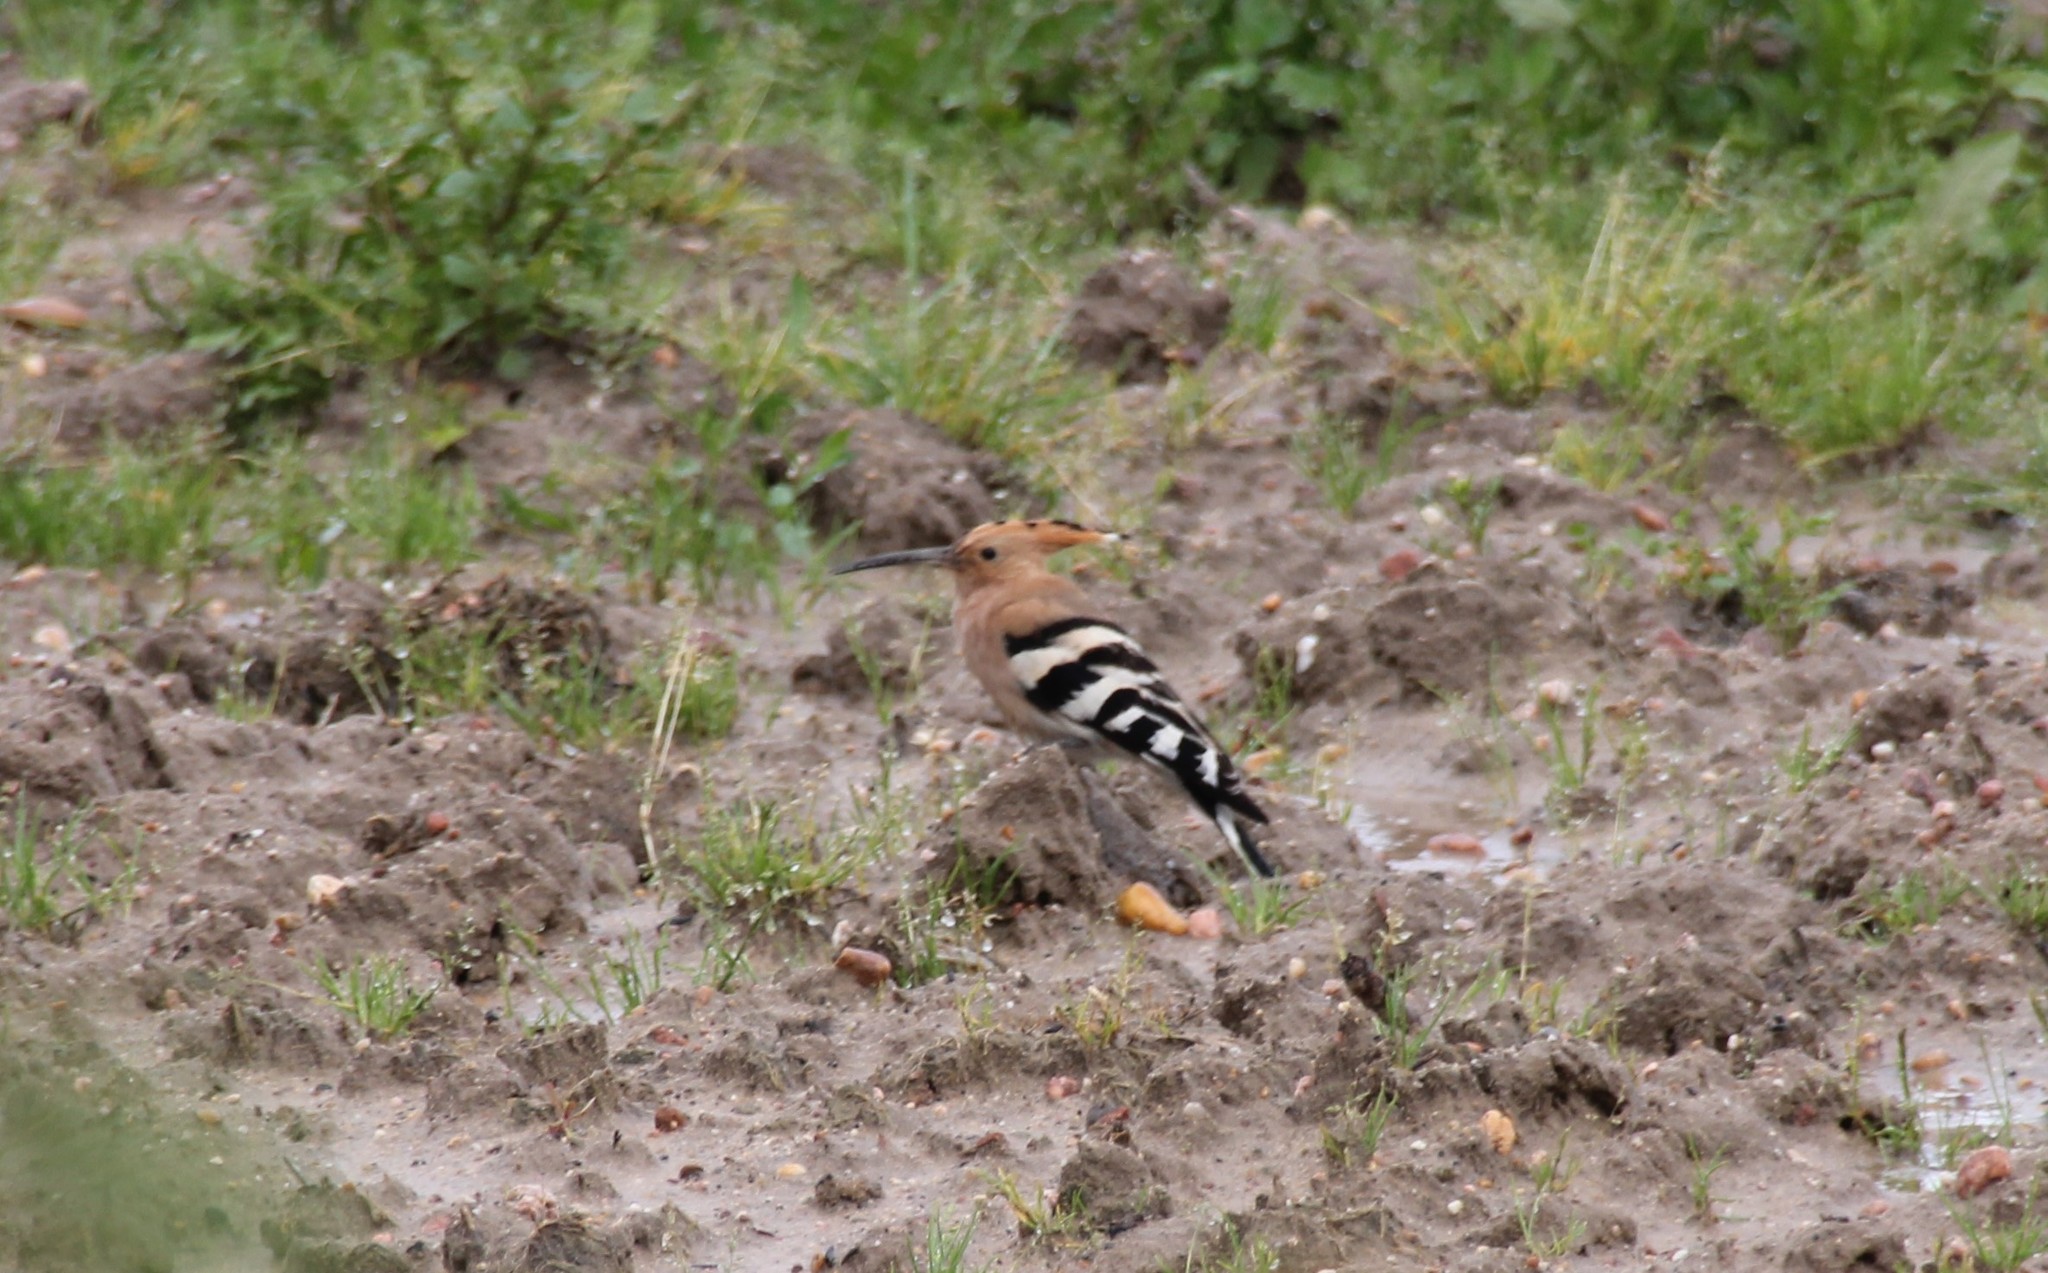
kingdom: Animalia
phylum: Chordata
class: Aves
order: Bucerotiformes
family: Upupidae
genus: Upupa
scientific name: Upupa epops
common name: Eurasian hoopoe
